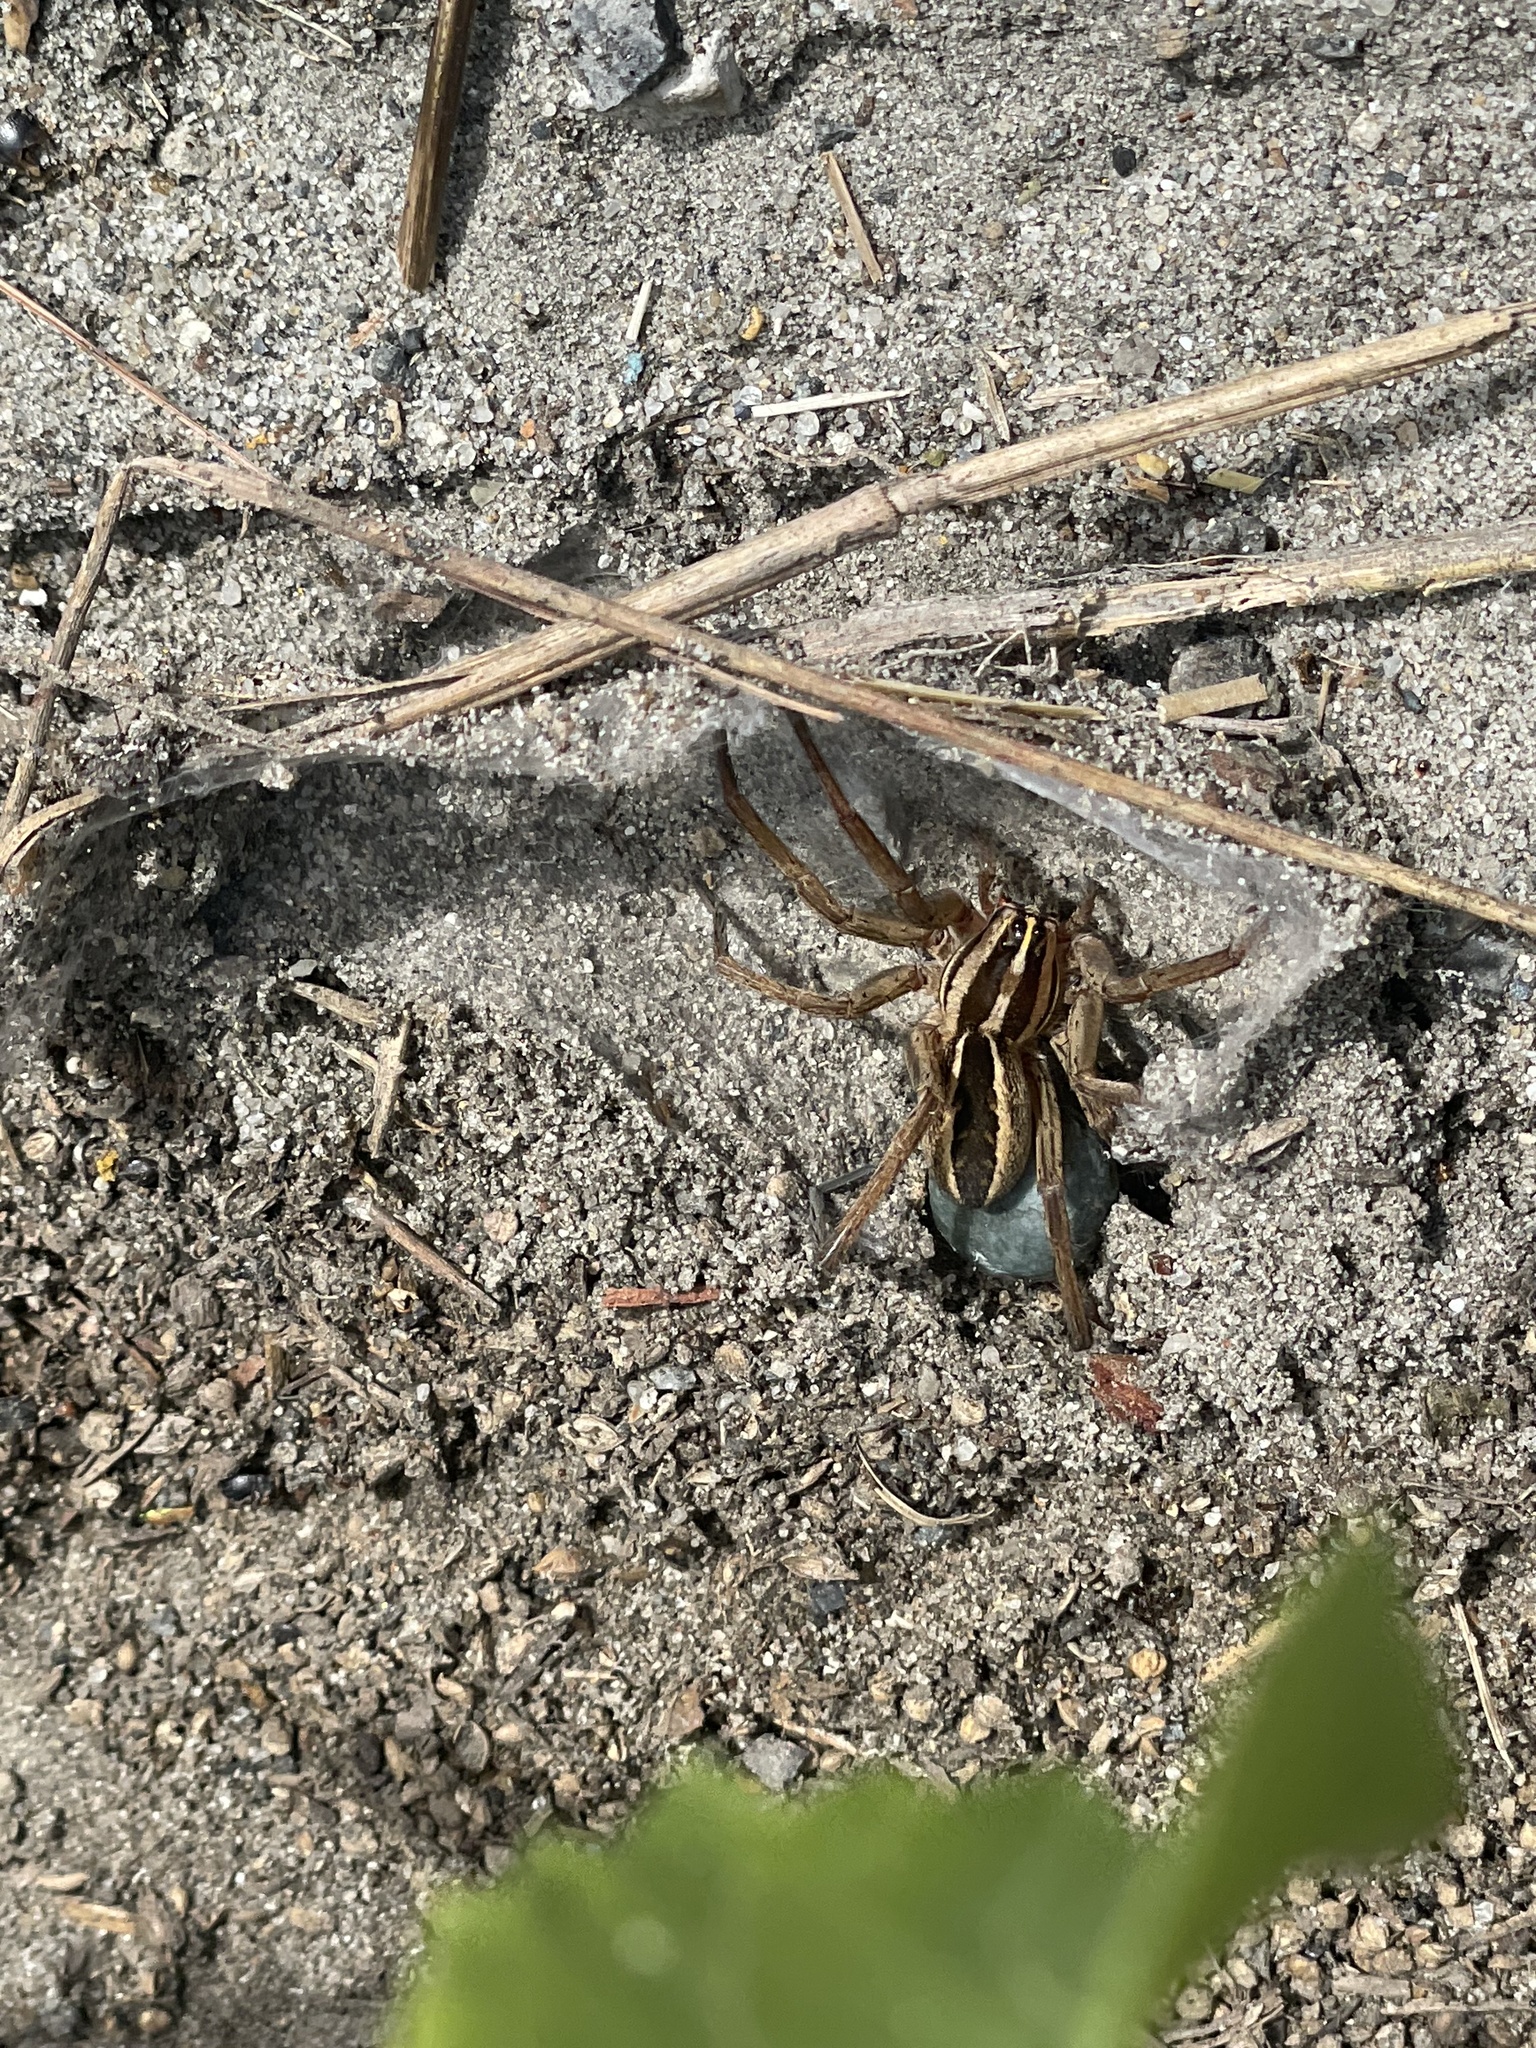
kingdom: Animalia
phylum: Arthropoda
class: Arachnida
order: Araneae
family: Lycosidae
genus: Rabidosa
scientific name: Rabidosa rabida
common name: Rabid wolf spider
